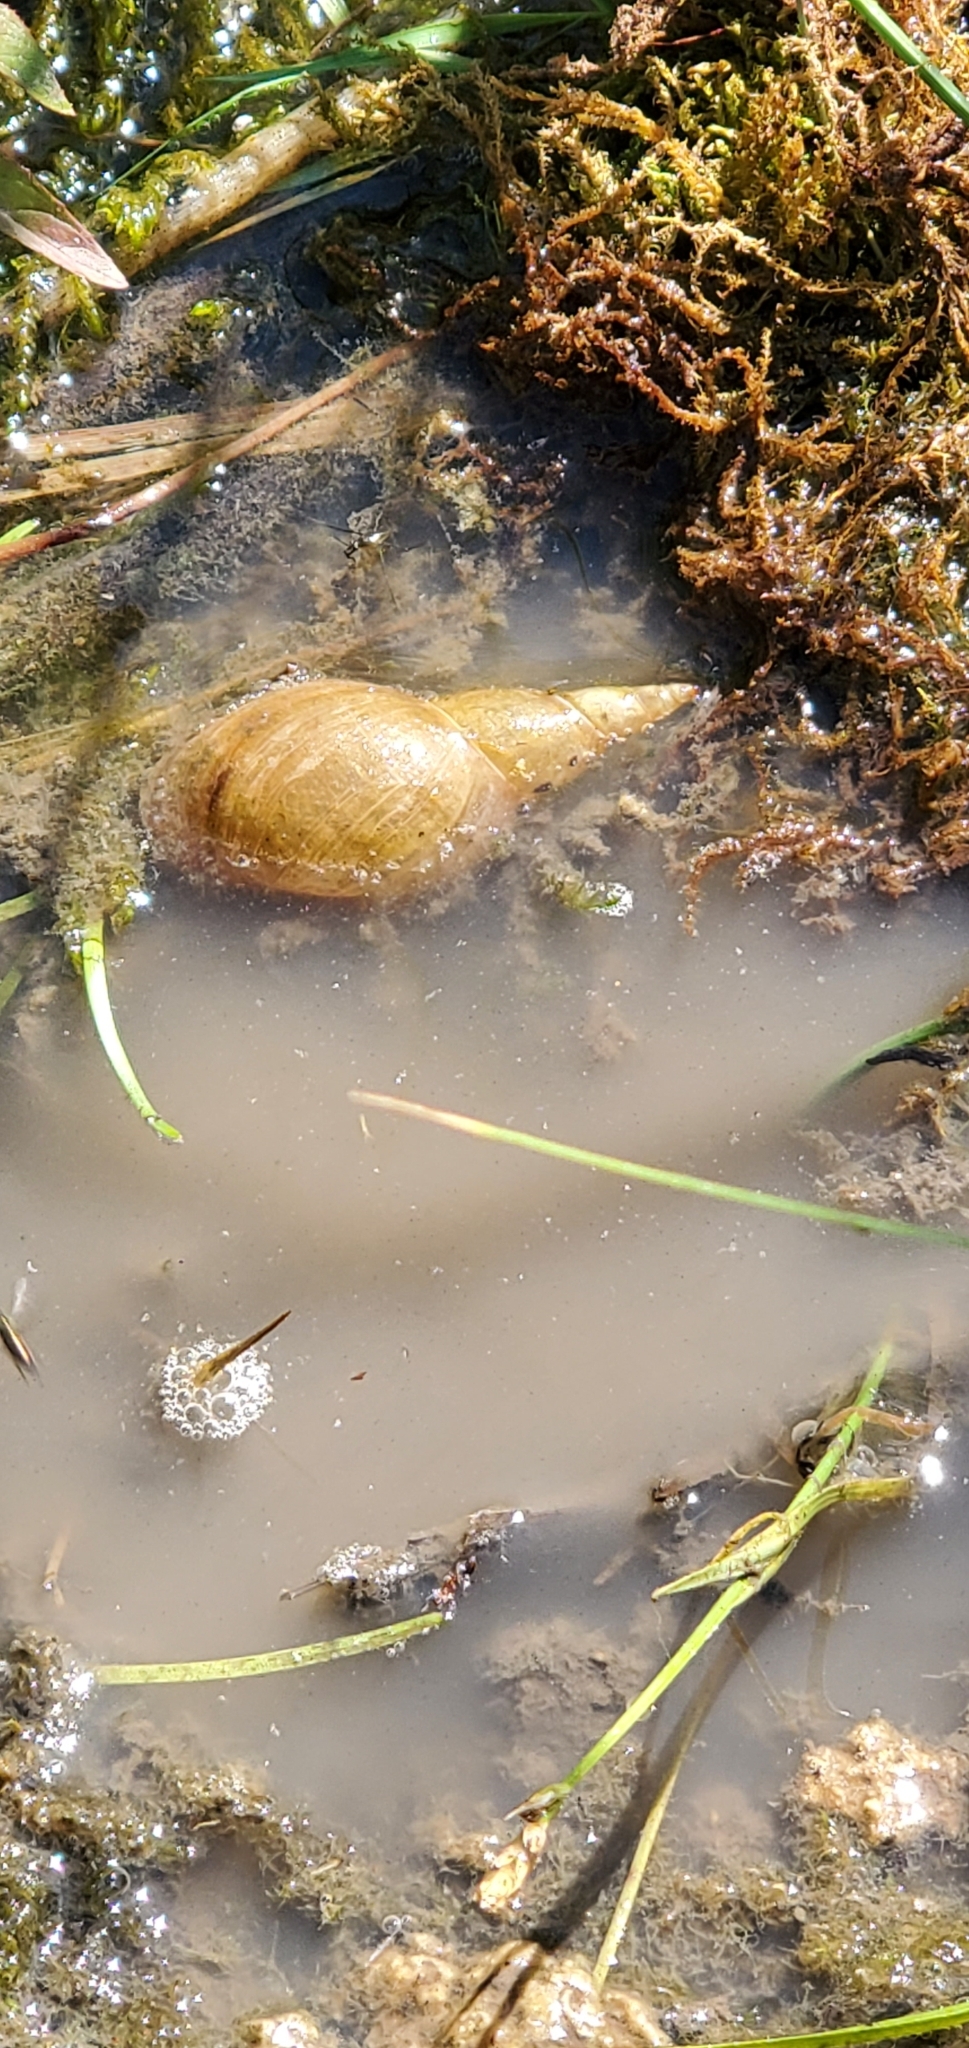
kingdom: Animalia
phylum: Mollusca
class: Gastropoda
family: Lymnaeidae
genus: Lymnaea
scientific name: Lymnaea stagnalis
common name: Great pond snail
